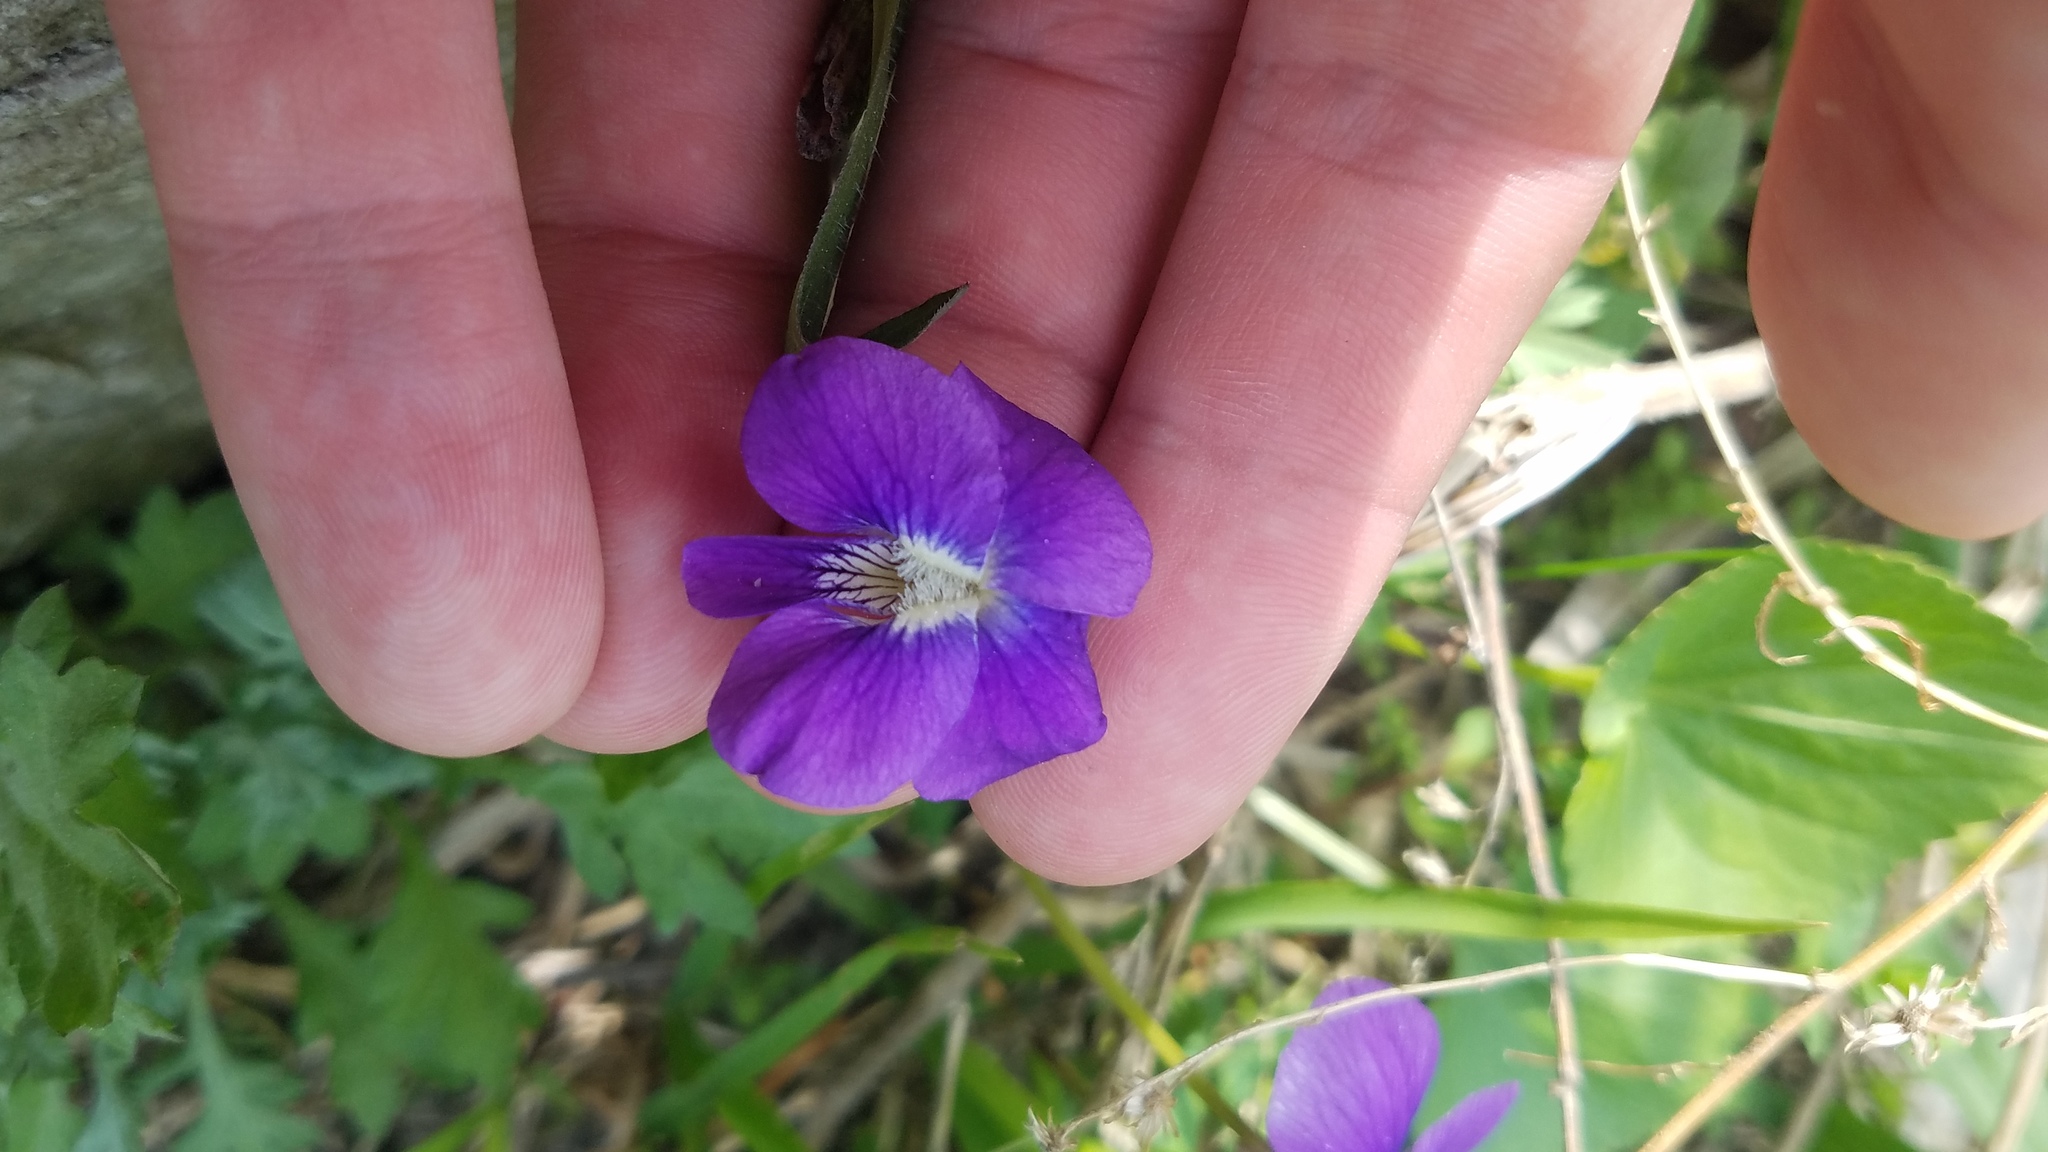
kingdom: Plantae
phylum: Tracheophyta
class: Magnoliopsida
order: Malpighiales
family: Violaceae
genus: Viola
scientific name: Viola sororia
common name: Dooryard violet
